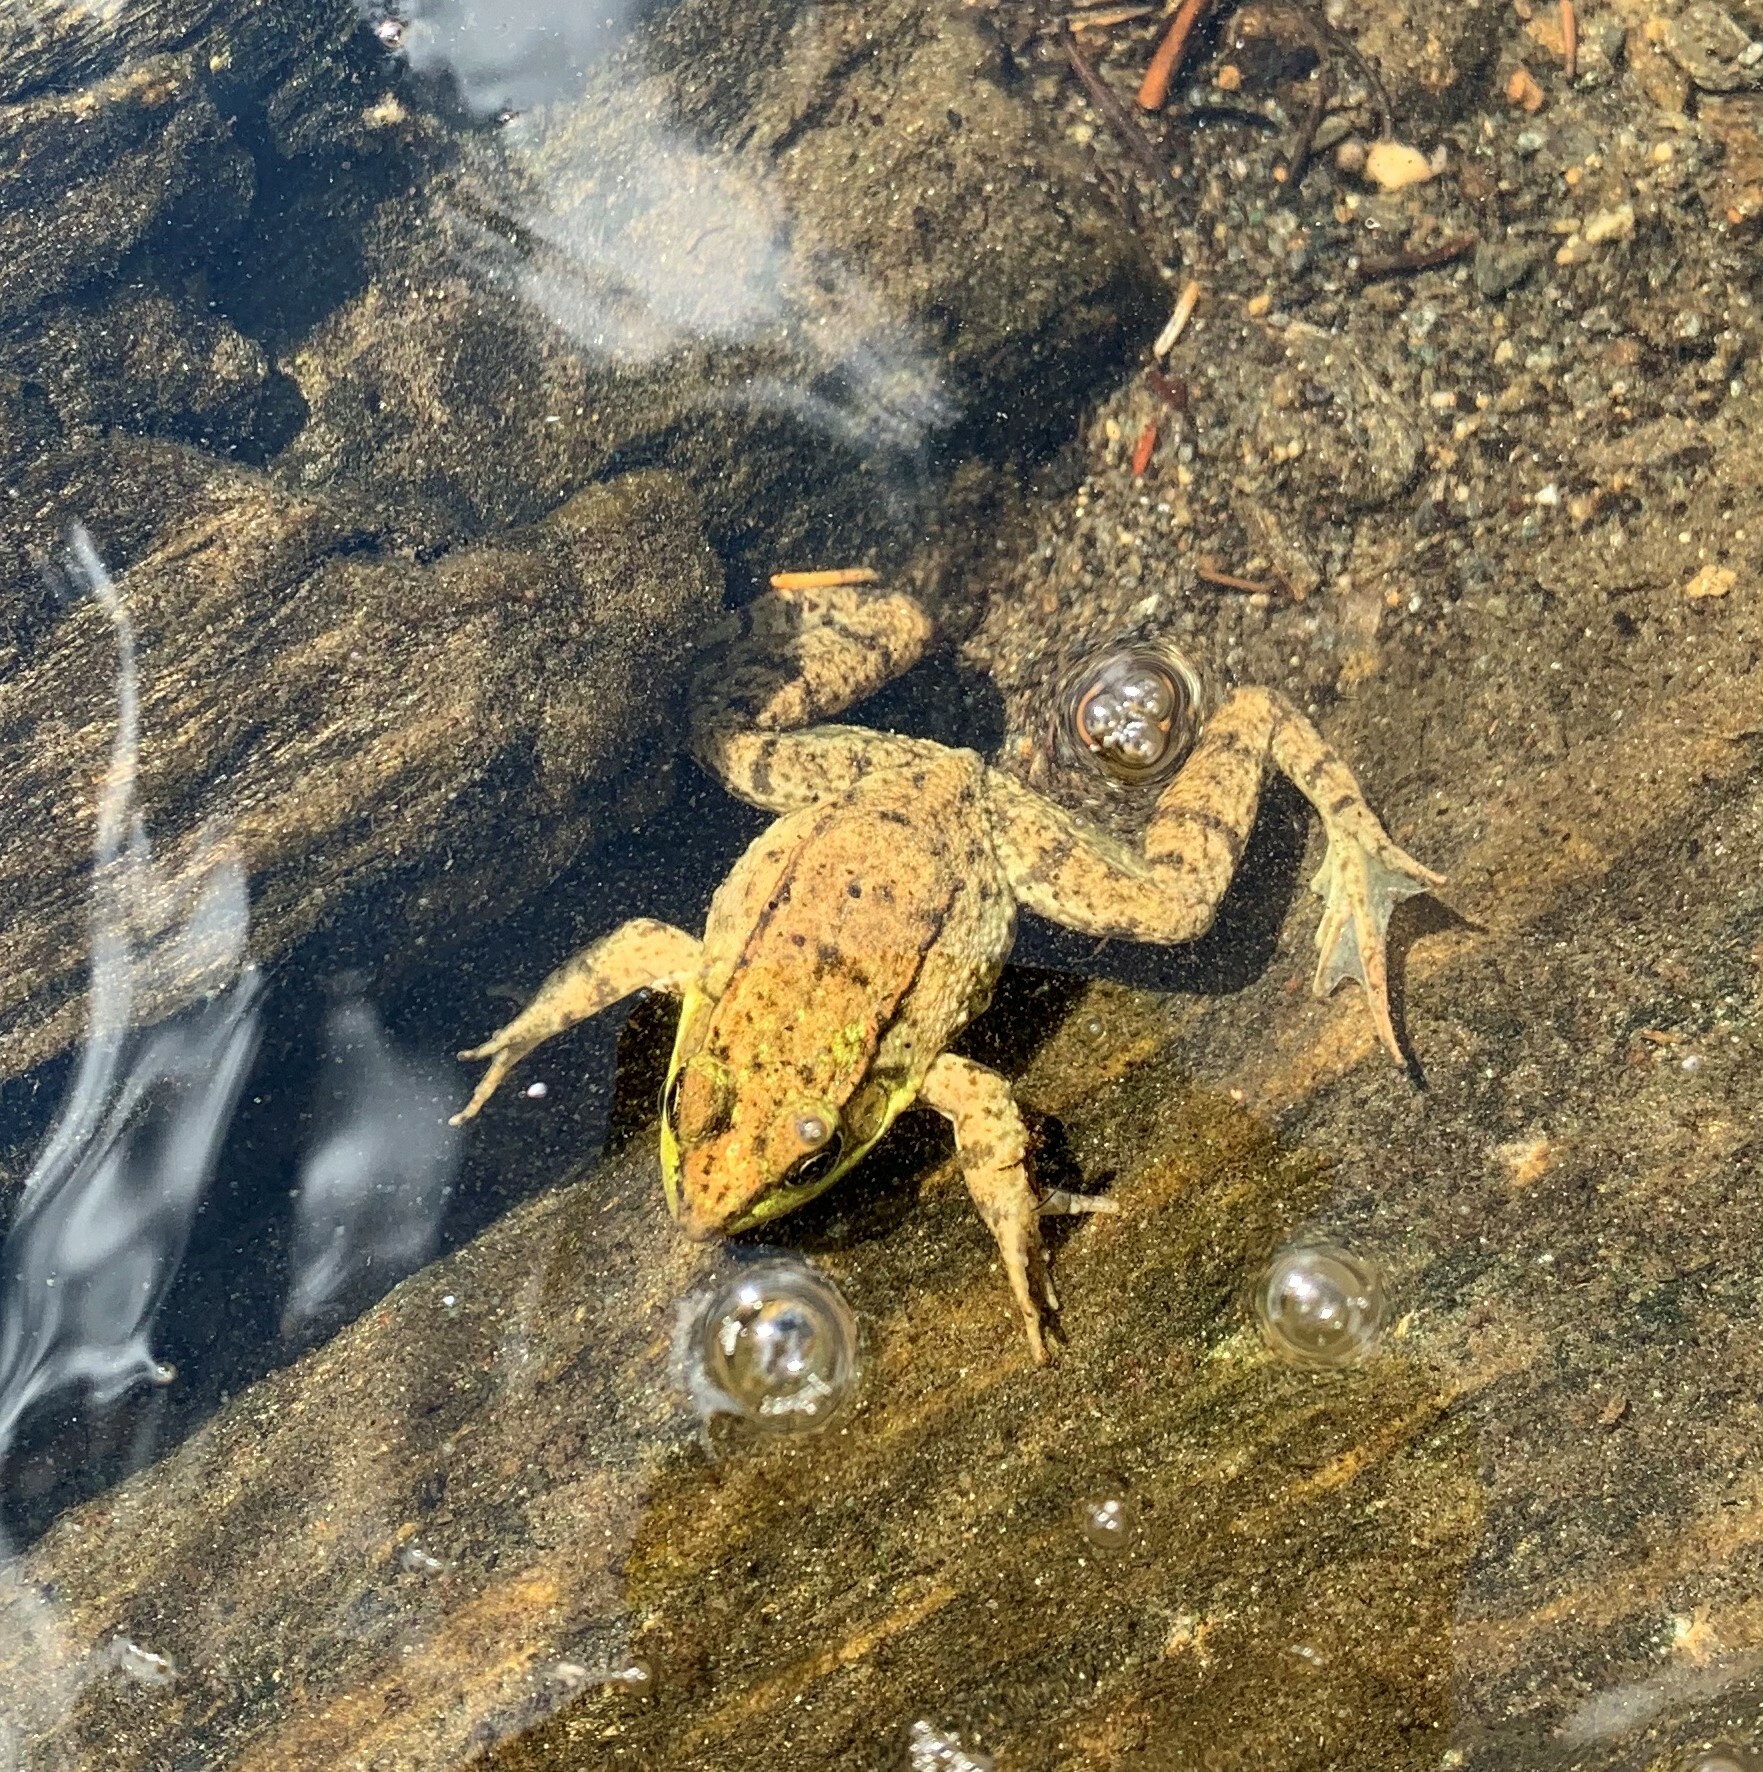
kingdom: Animalia
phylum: Chordata
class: Amphibia
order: Anura
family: Ranidae
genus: Lithobates
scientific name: Lithobates clamitans
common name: Green frog
